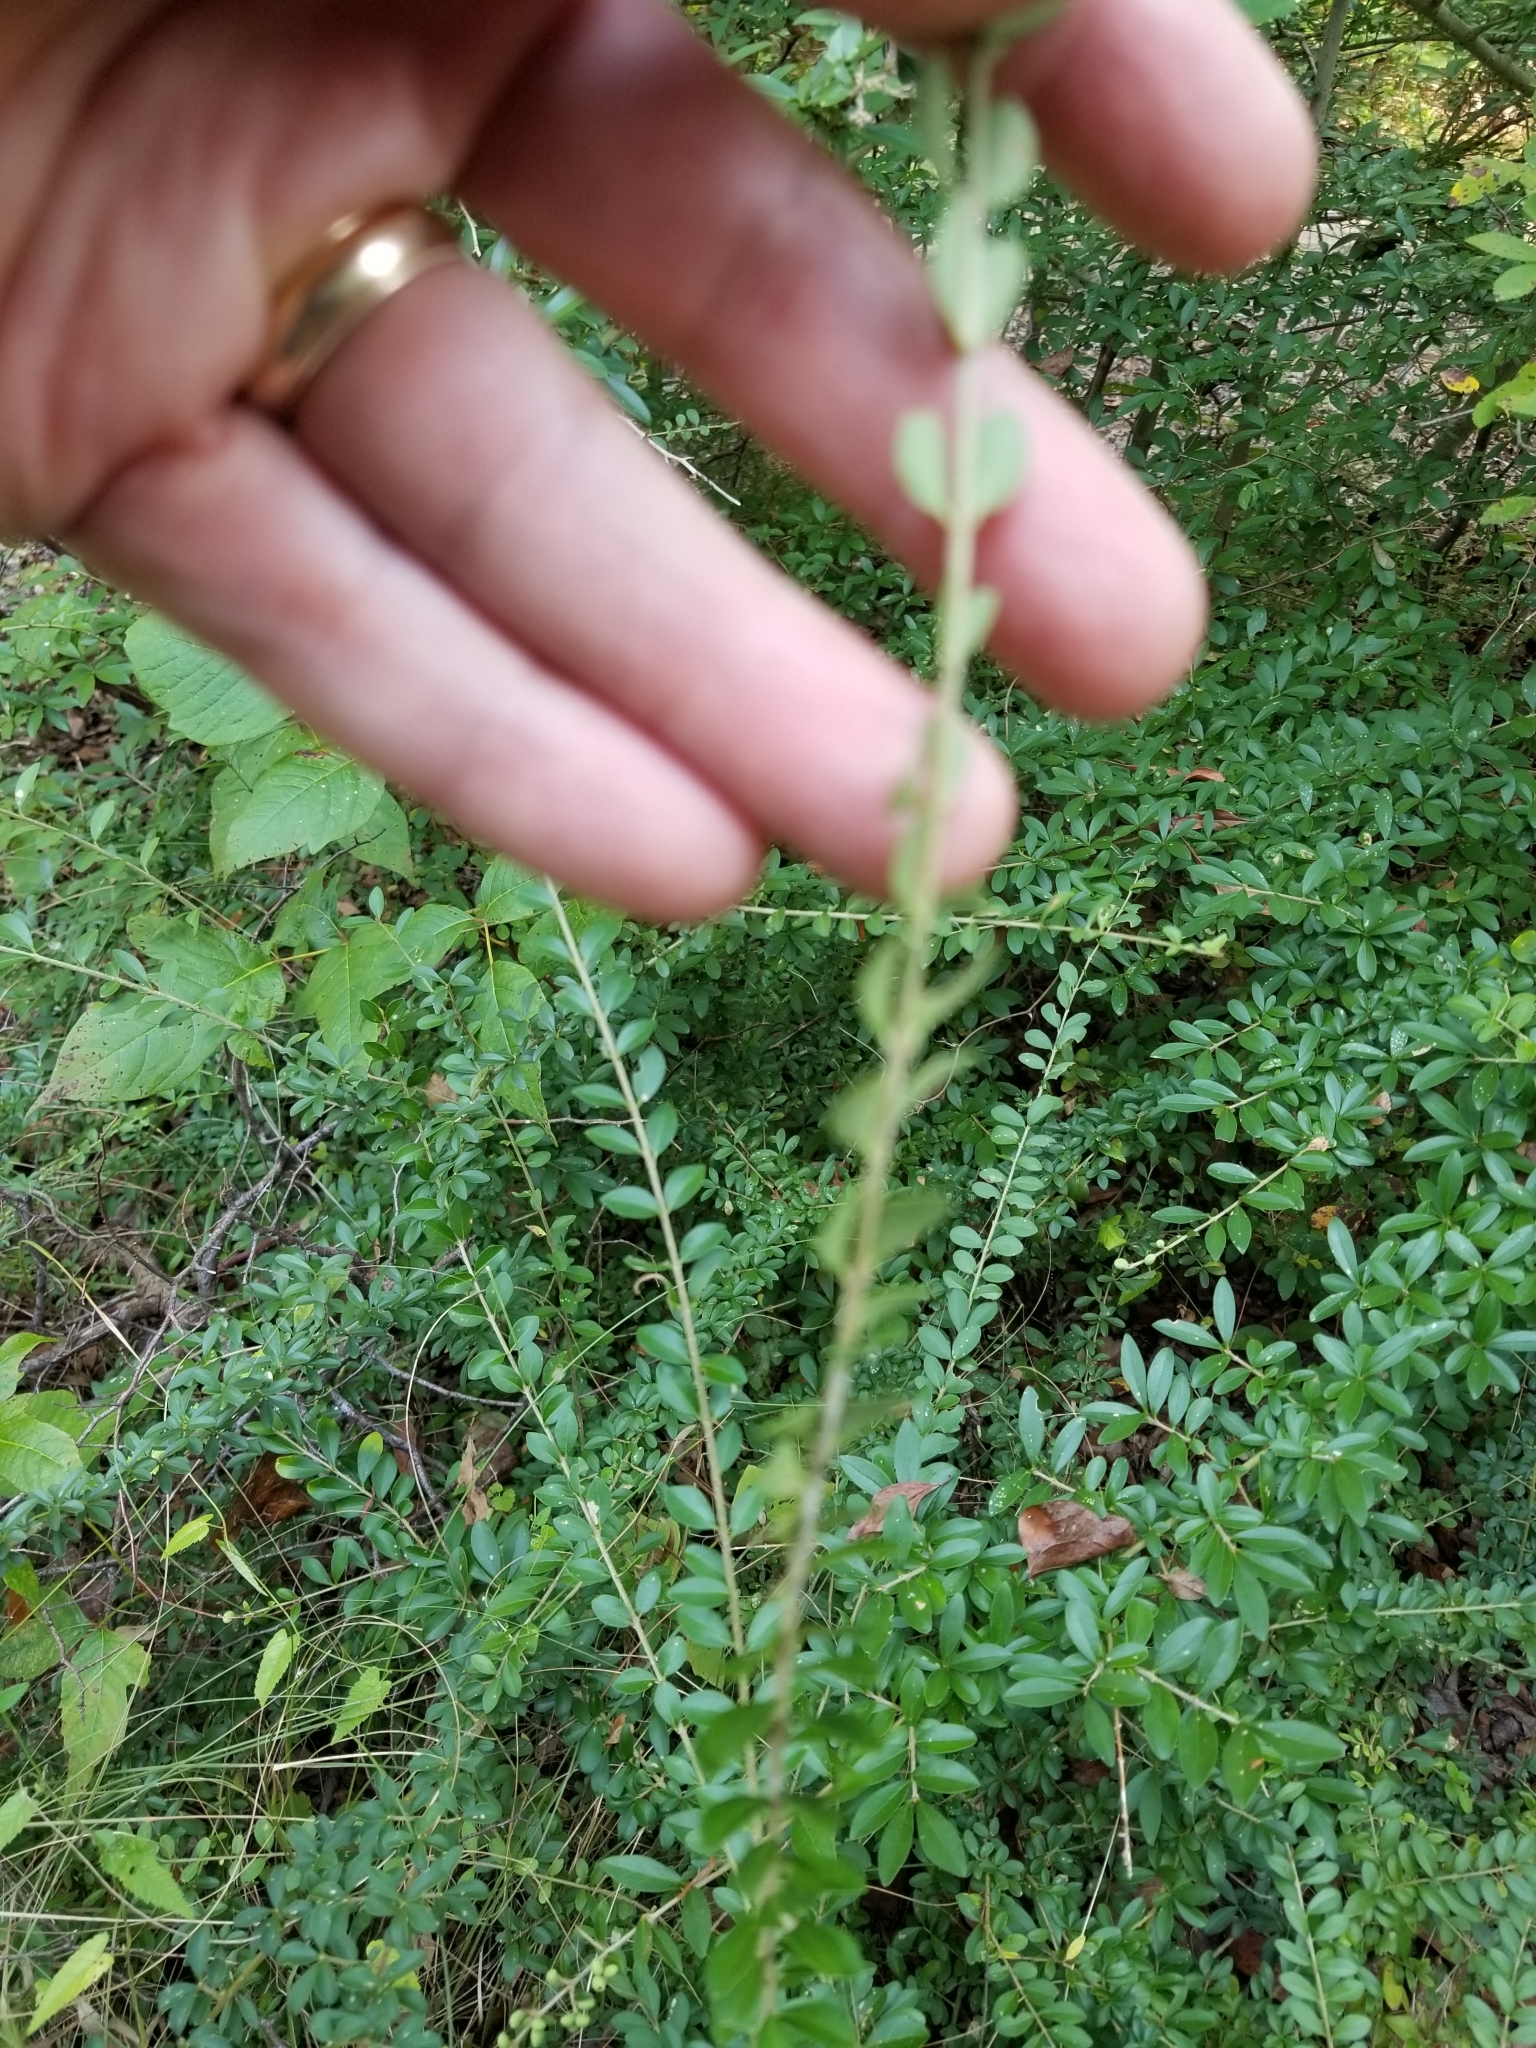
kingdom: Plantae
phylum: Tracheophyta
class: Magnoliopsida
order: Lamiales
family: Oleaceae
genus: Ligustrum
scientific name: Ligustrum quihoui
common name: Waxyleaf privet
